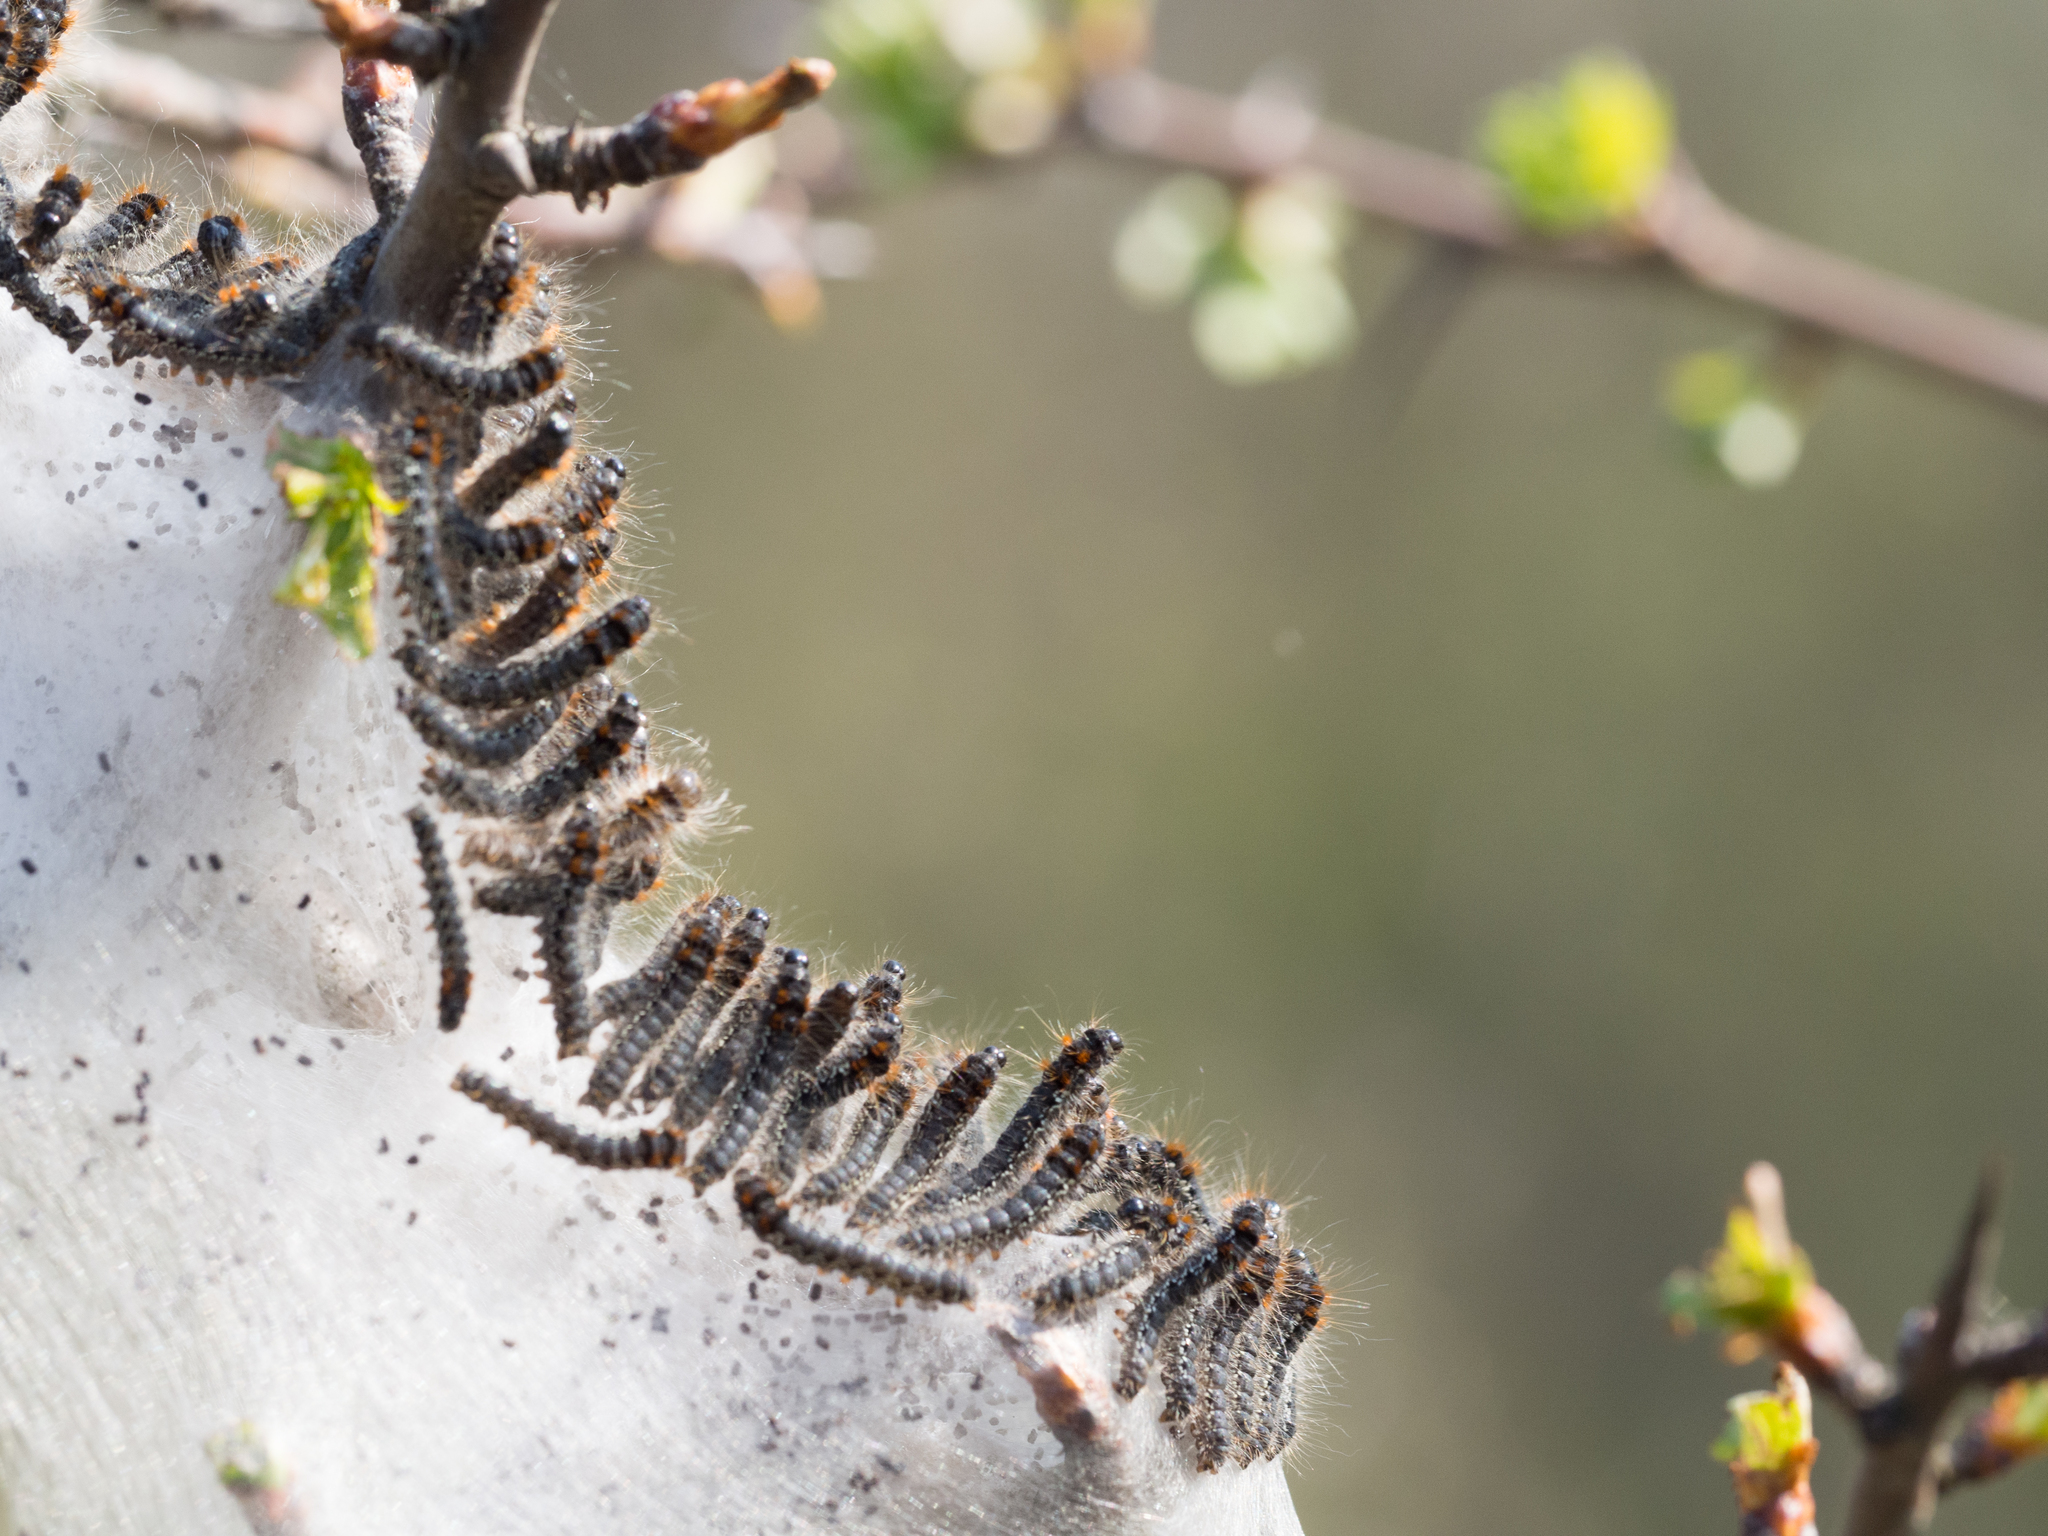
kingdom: Animalia
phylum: Arthropoda
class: Insecta
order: Lepidoptera
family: Lasiocampidae
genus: Eriogaster
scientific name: Eriogaster catax
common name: Eastern eggar
